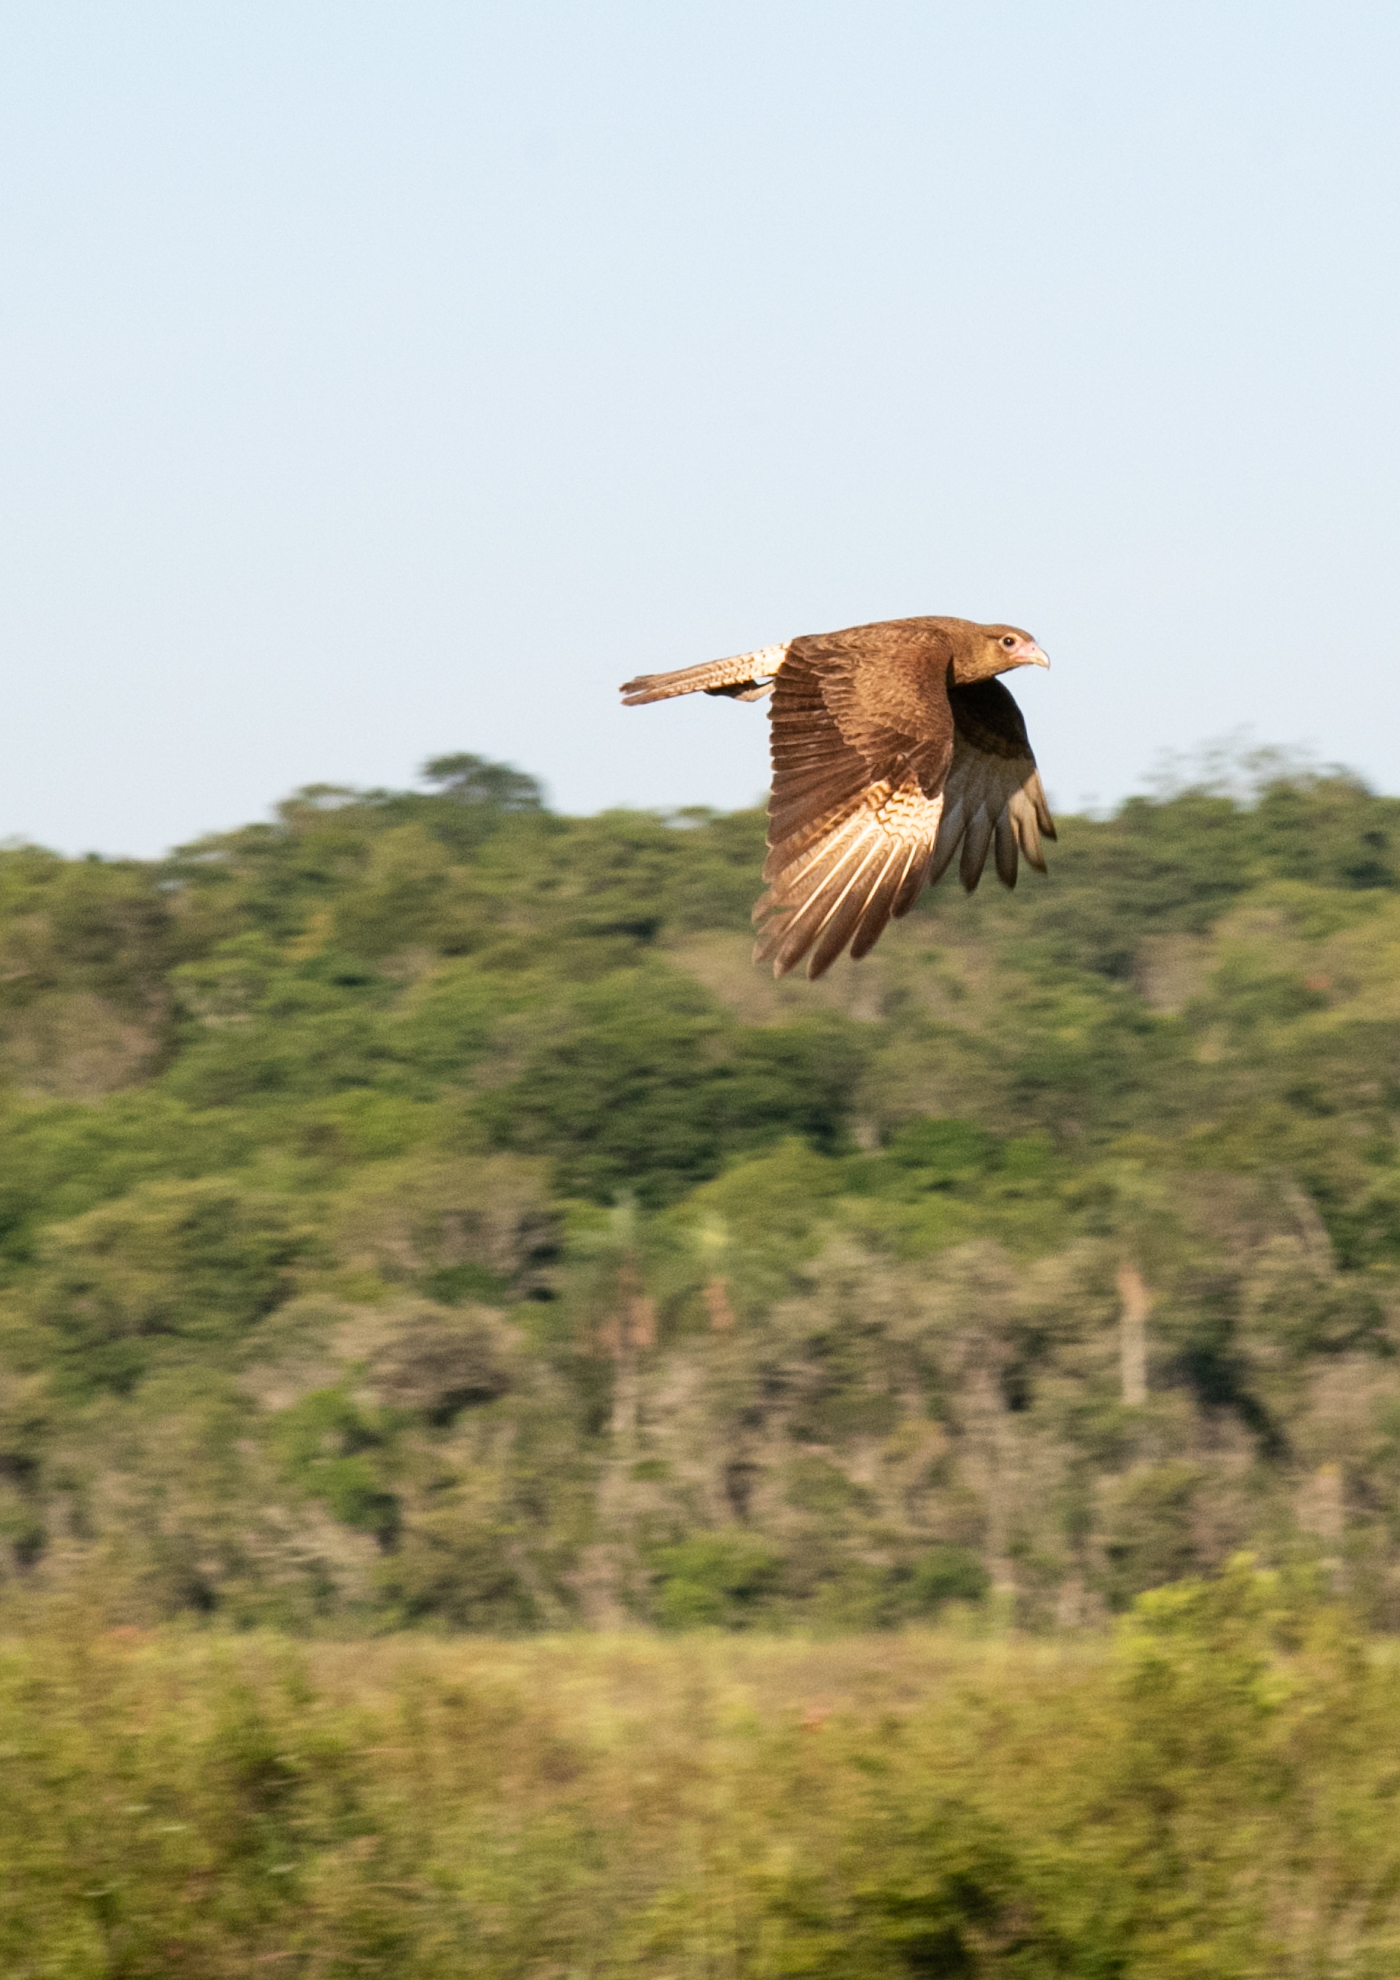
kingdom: Animalia
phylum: Chordata
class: Aves
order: Falconiformes
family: Falconidae
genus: Daptrius
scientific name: Daptrius
